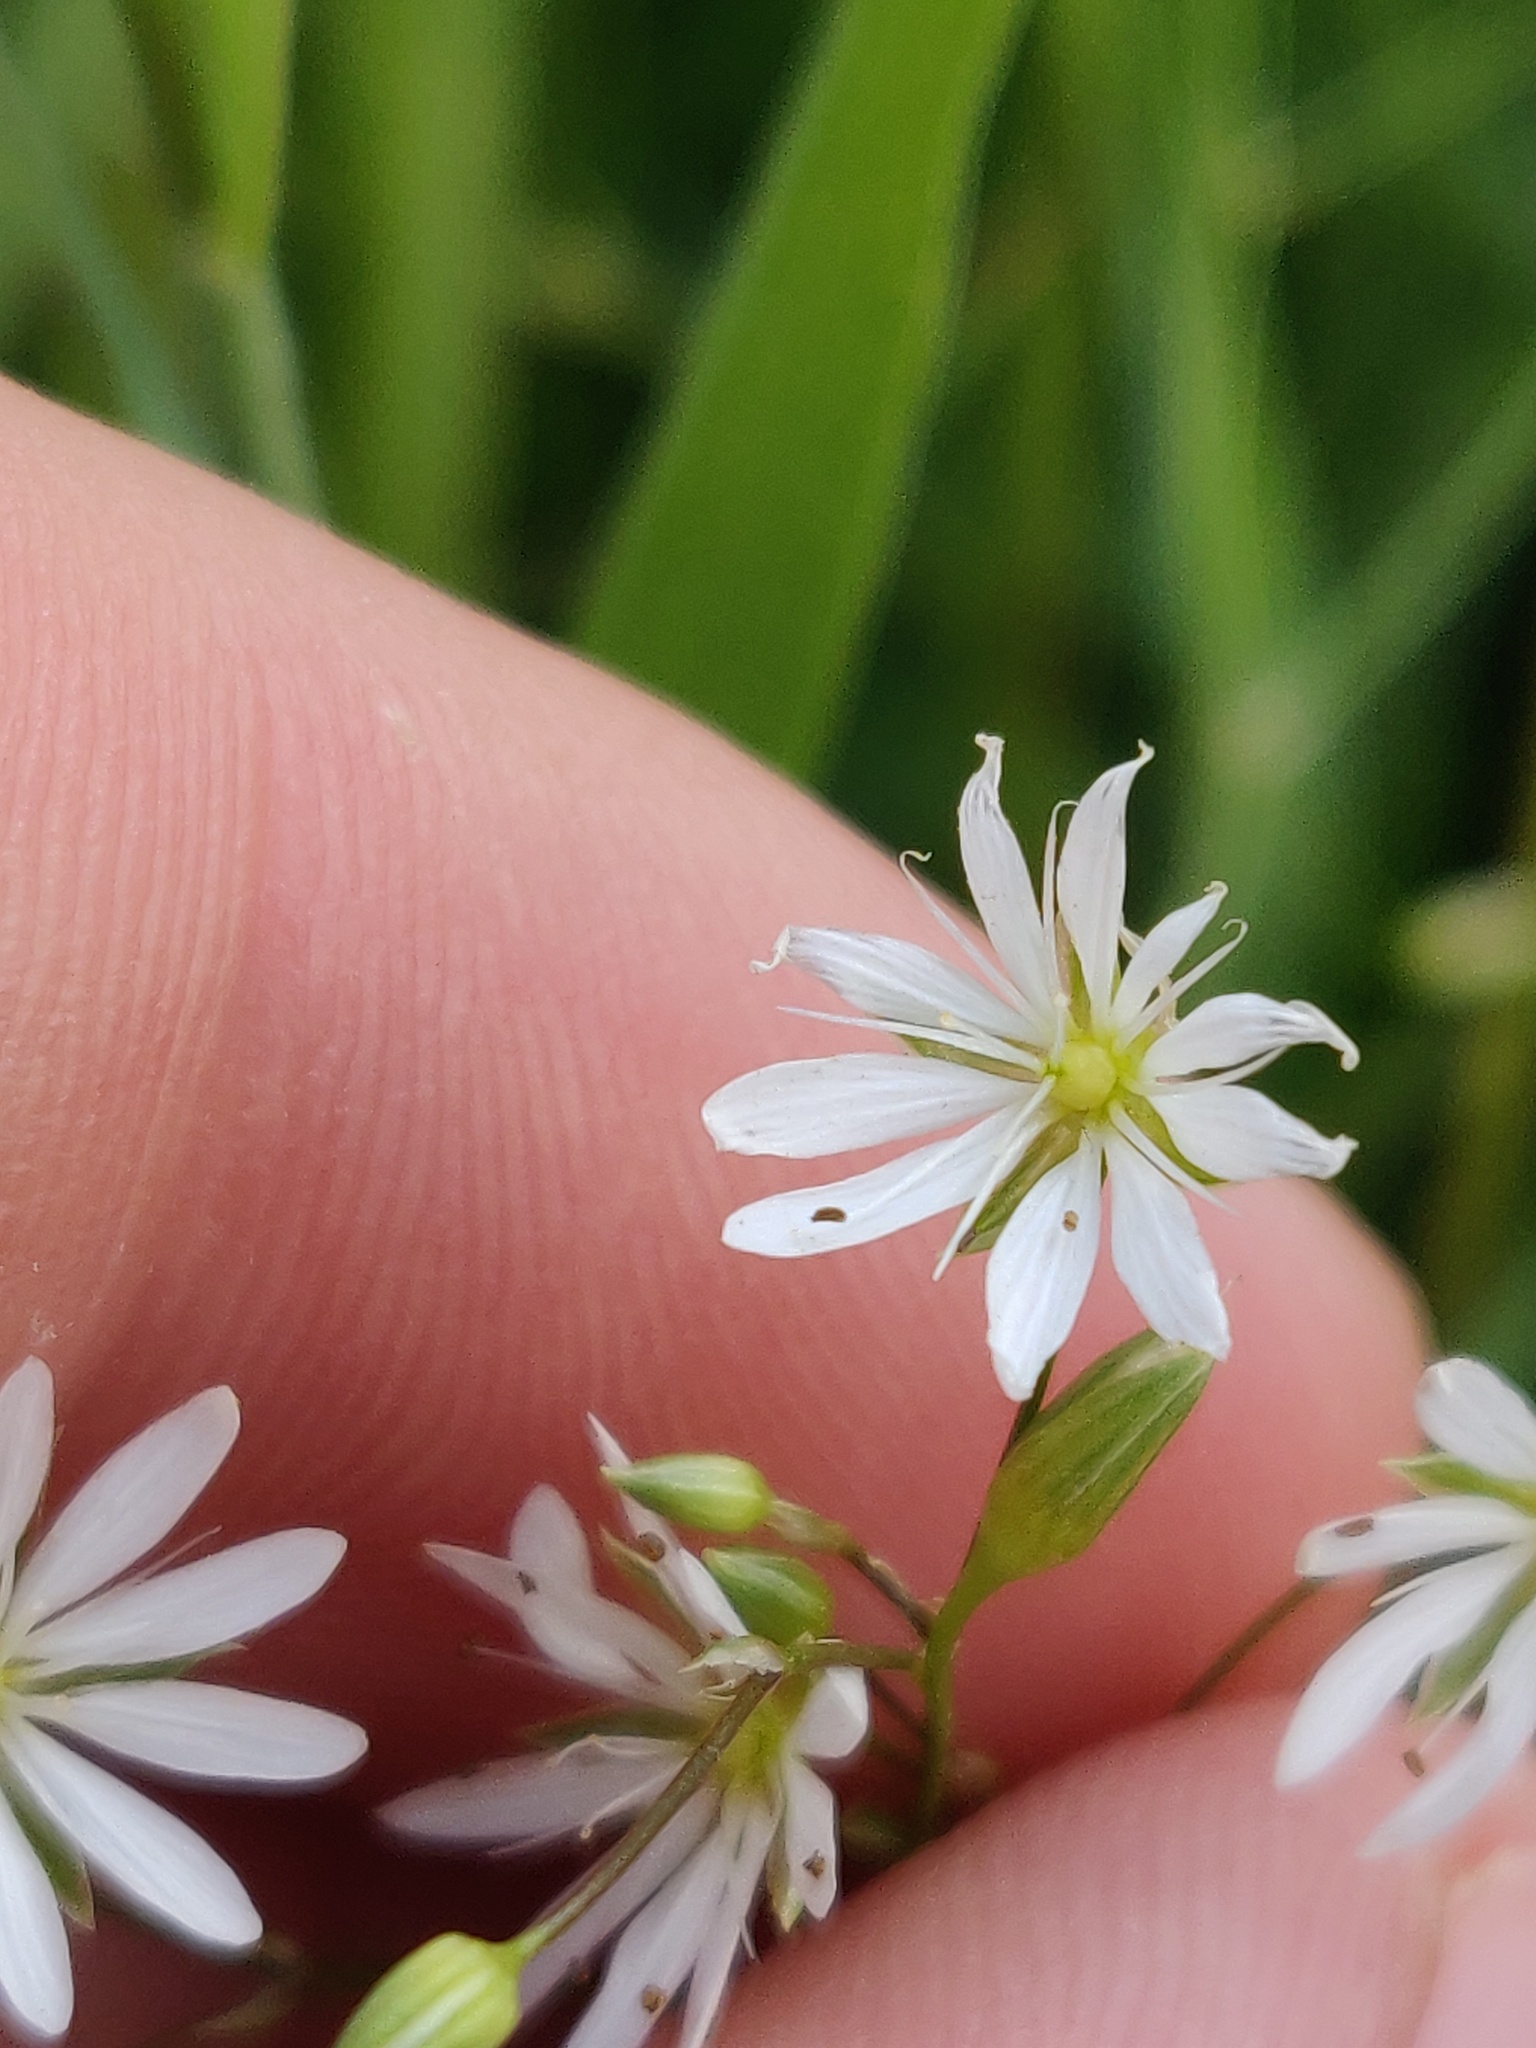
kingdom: Plantae
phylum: Tracheophyta
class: Magnoliopsida
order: Caryophyllales
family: Caryophyllaceae
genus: Stellaria
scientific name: Stellaria graminea
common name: Grass-like starwort
